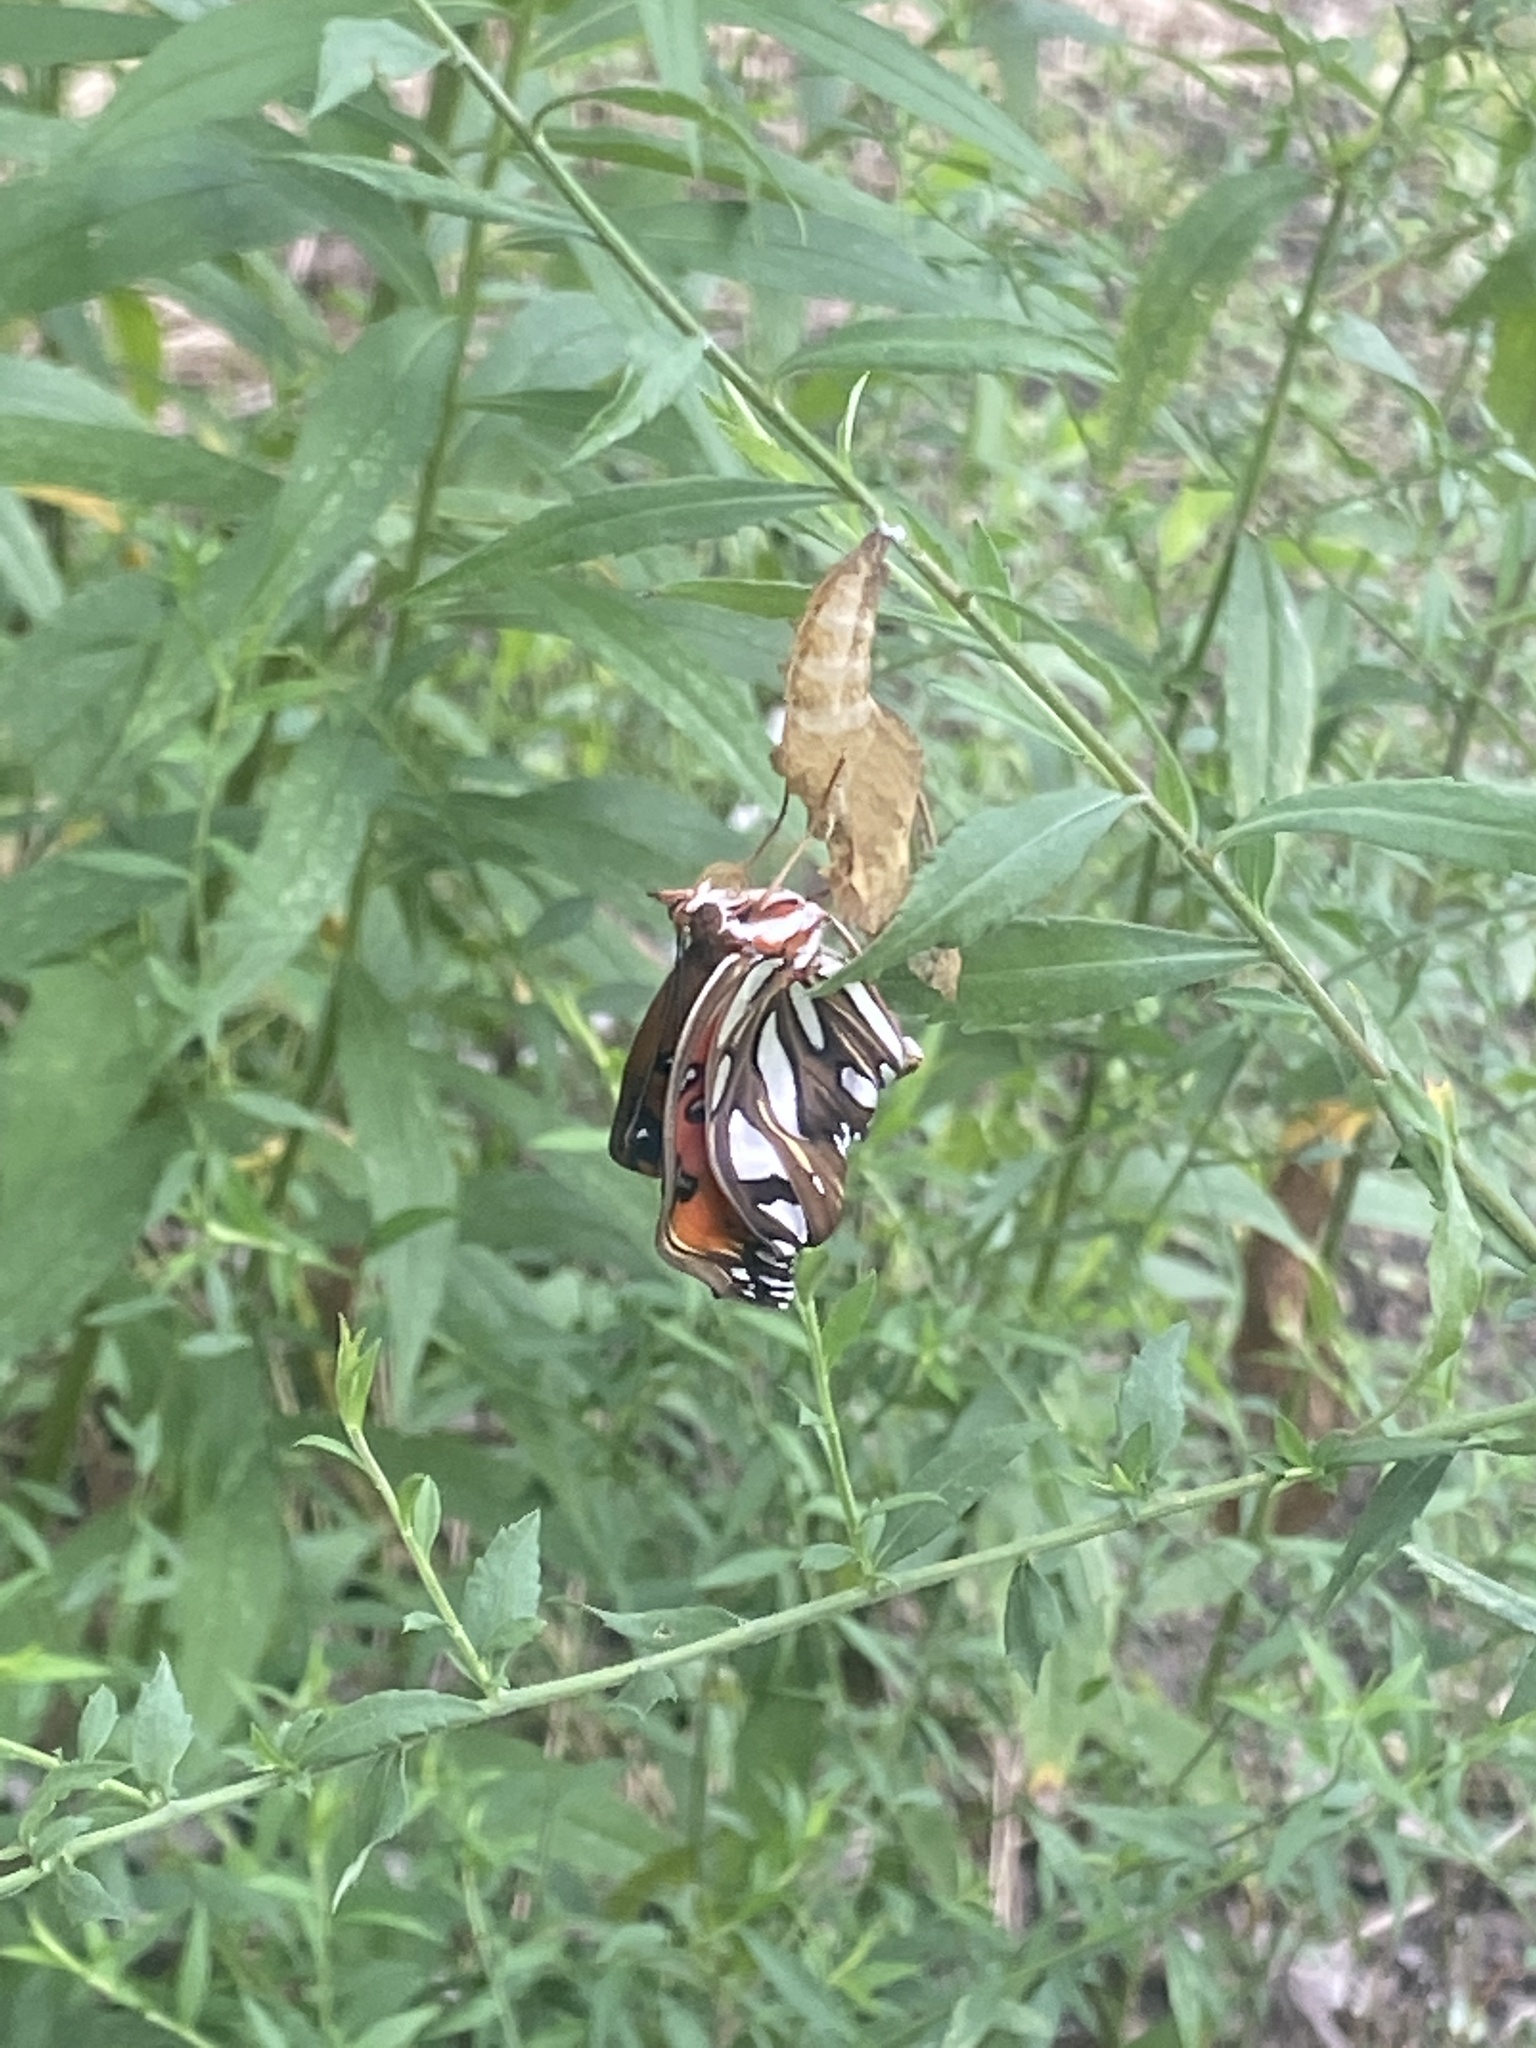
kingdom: Animalia
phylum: Arthropoda
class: Insecta
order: Lepidoptera
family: Nymphalidae
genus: Dione
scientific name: Dione vanillae
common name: Gulf fritillary
